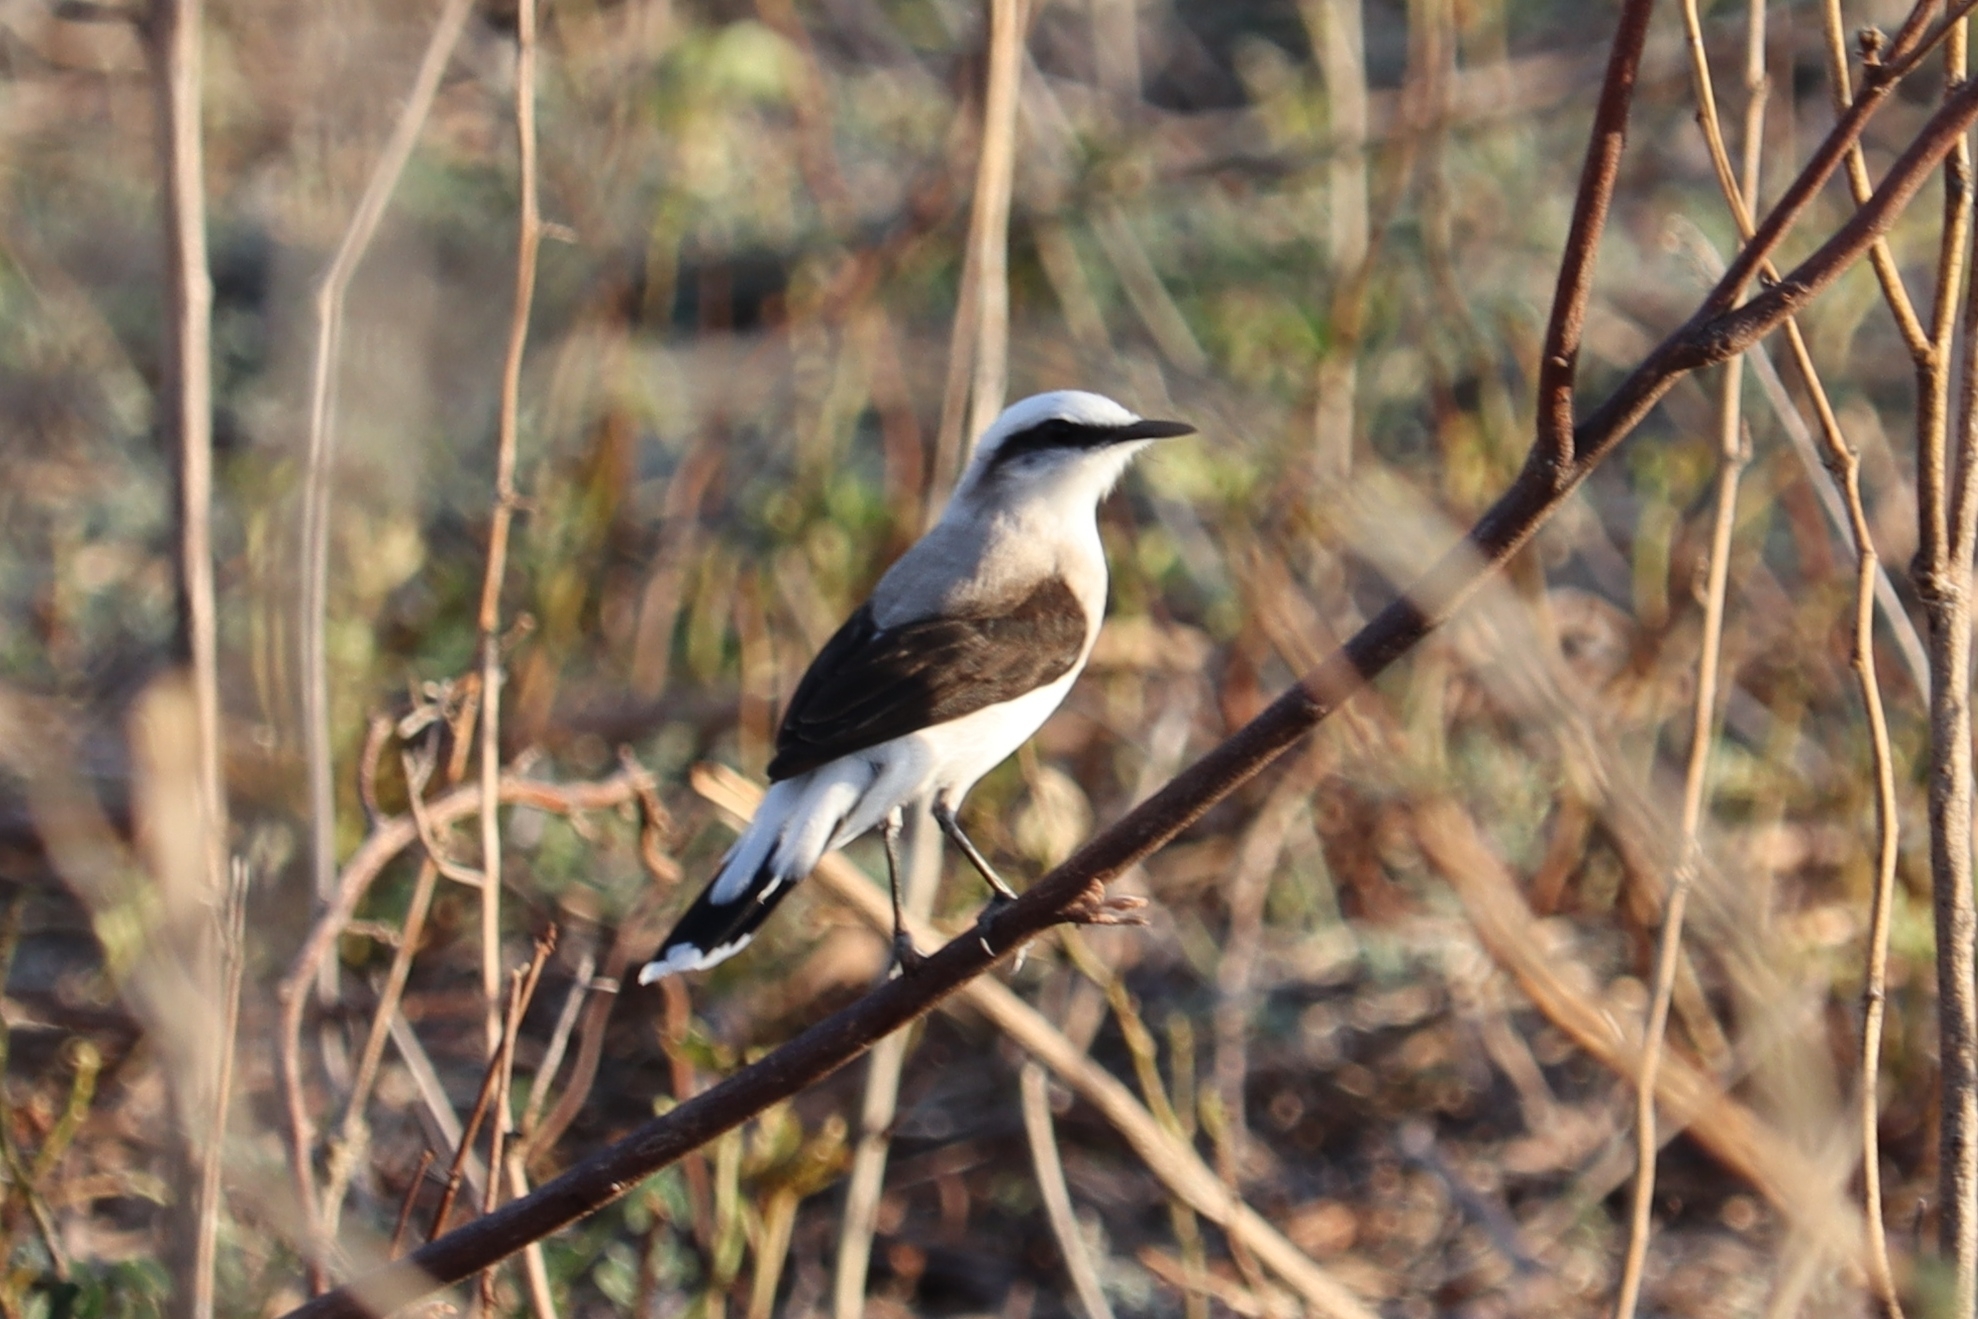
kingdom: Animalia
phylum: Chordata
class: Aves
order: Passeriformes
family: Tyrannidae
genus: Fluvicola
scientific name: Fluvicola nengeta
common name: Masked water tyrant
